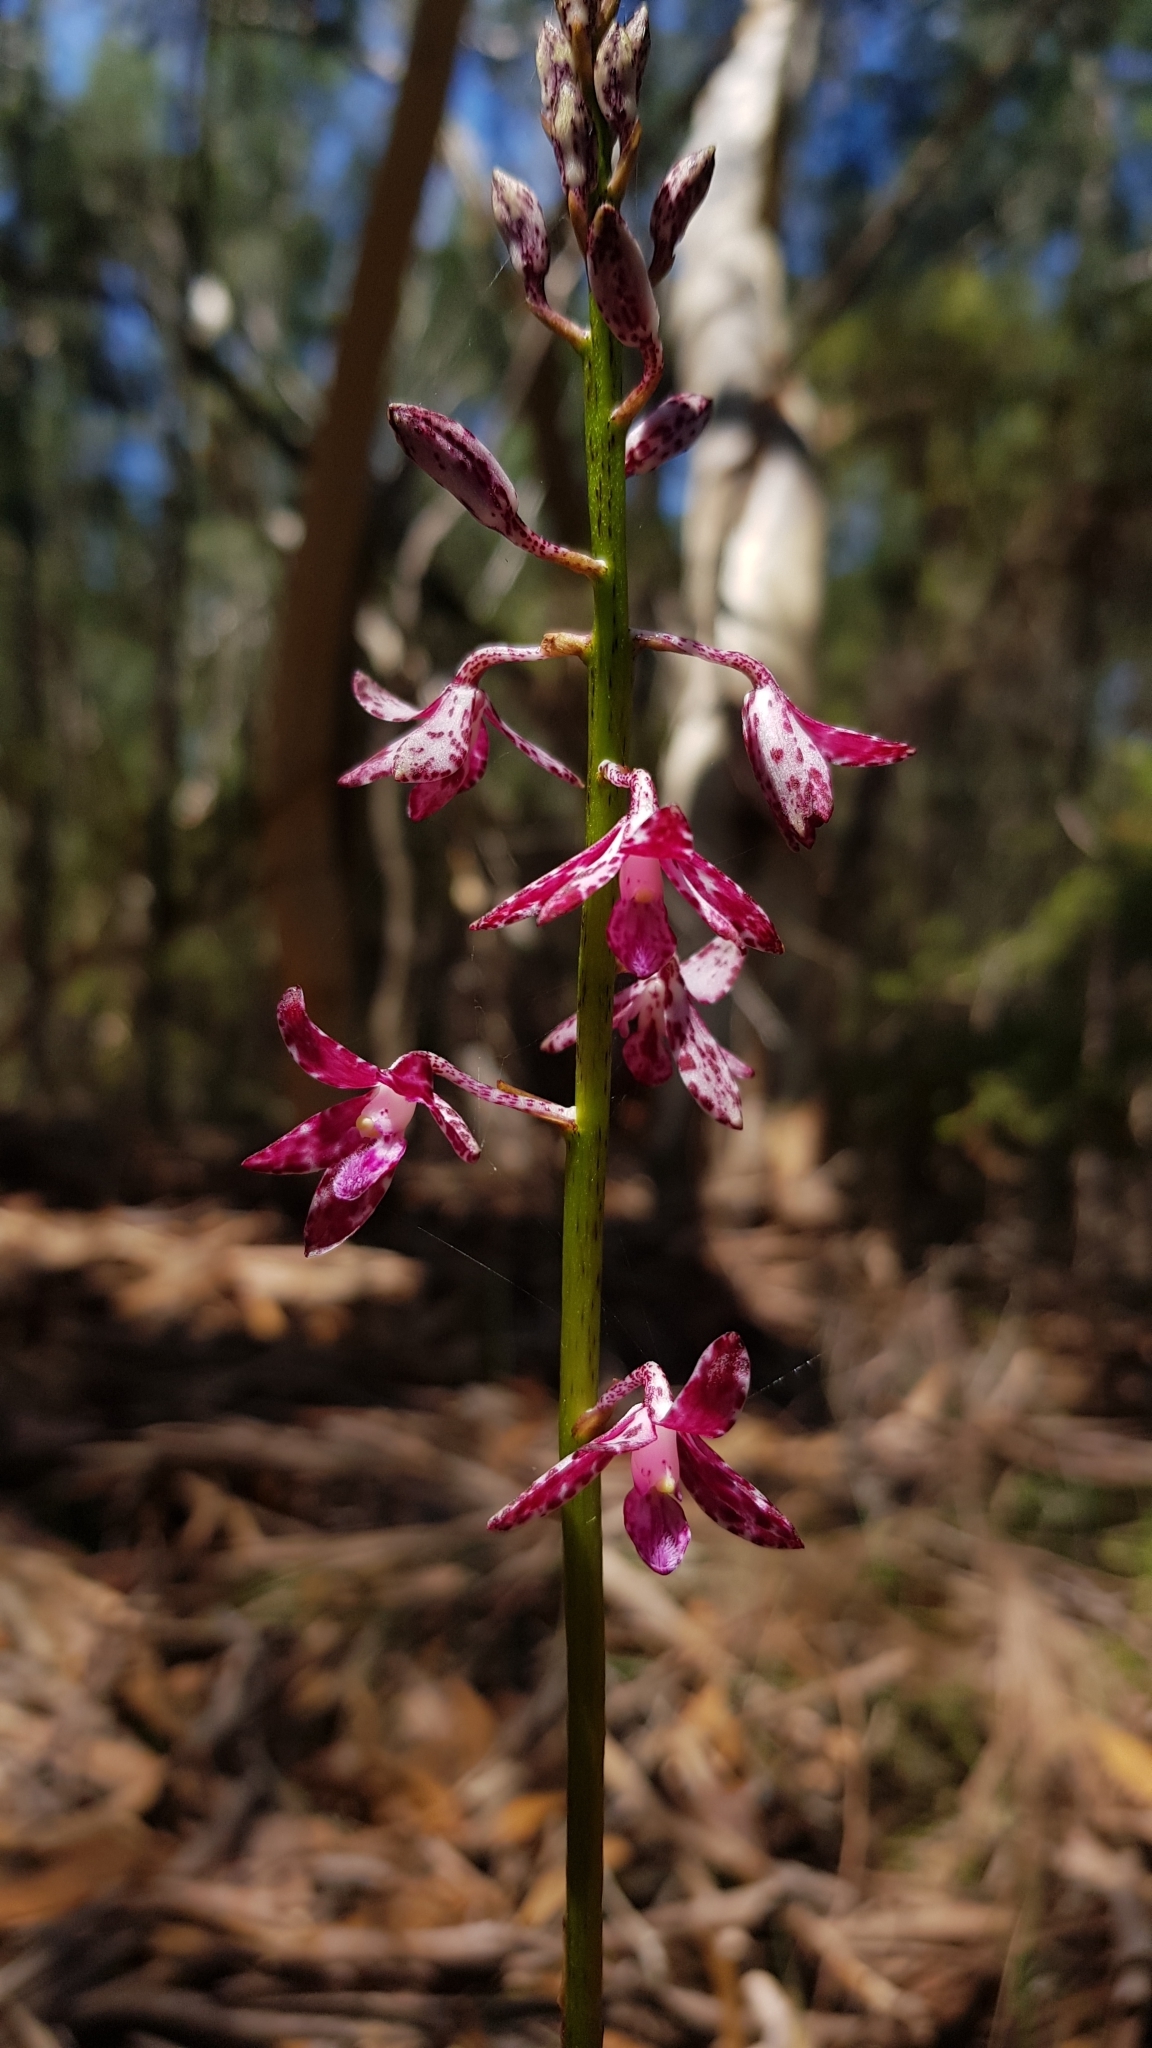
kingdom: Plantae
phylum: Tracheophyta
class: Liliopsida
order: Asparagales
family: Orchidaceae
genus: Dipodium
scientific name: Dipodium variegatum
